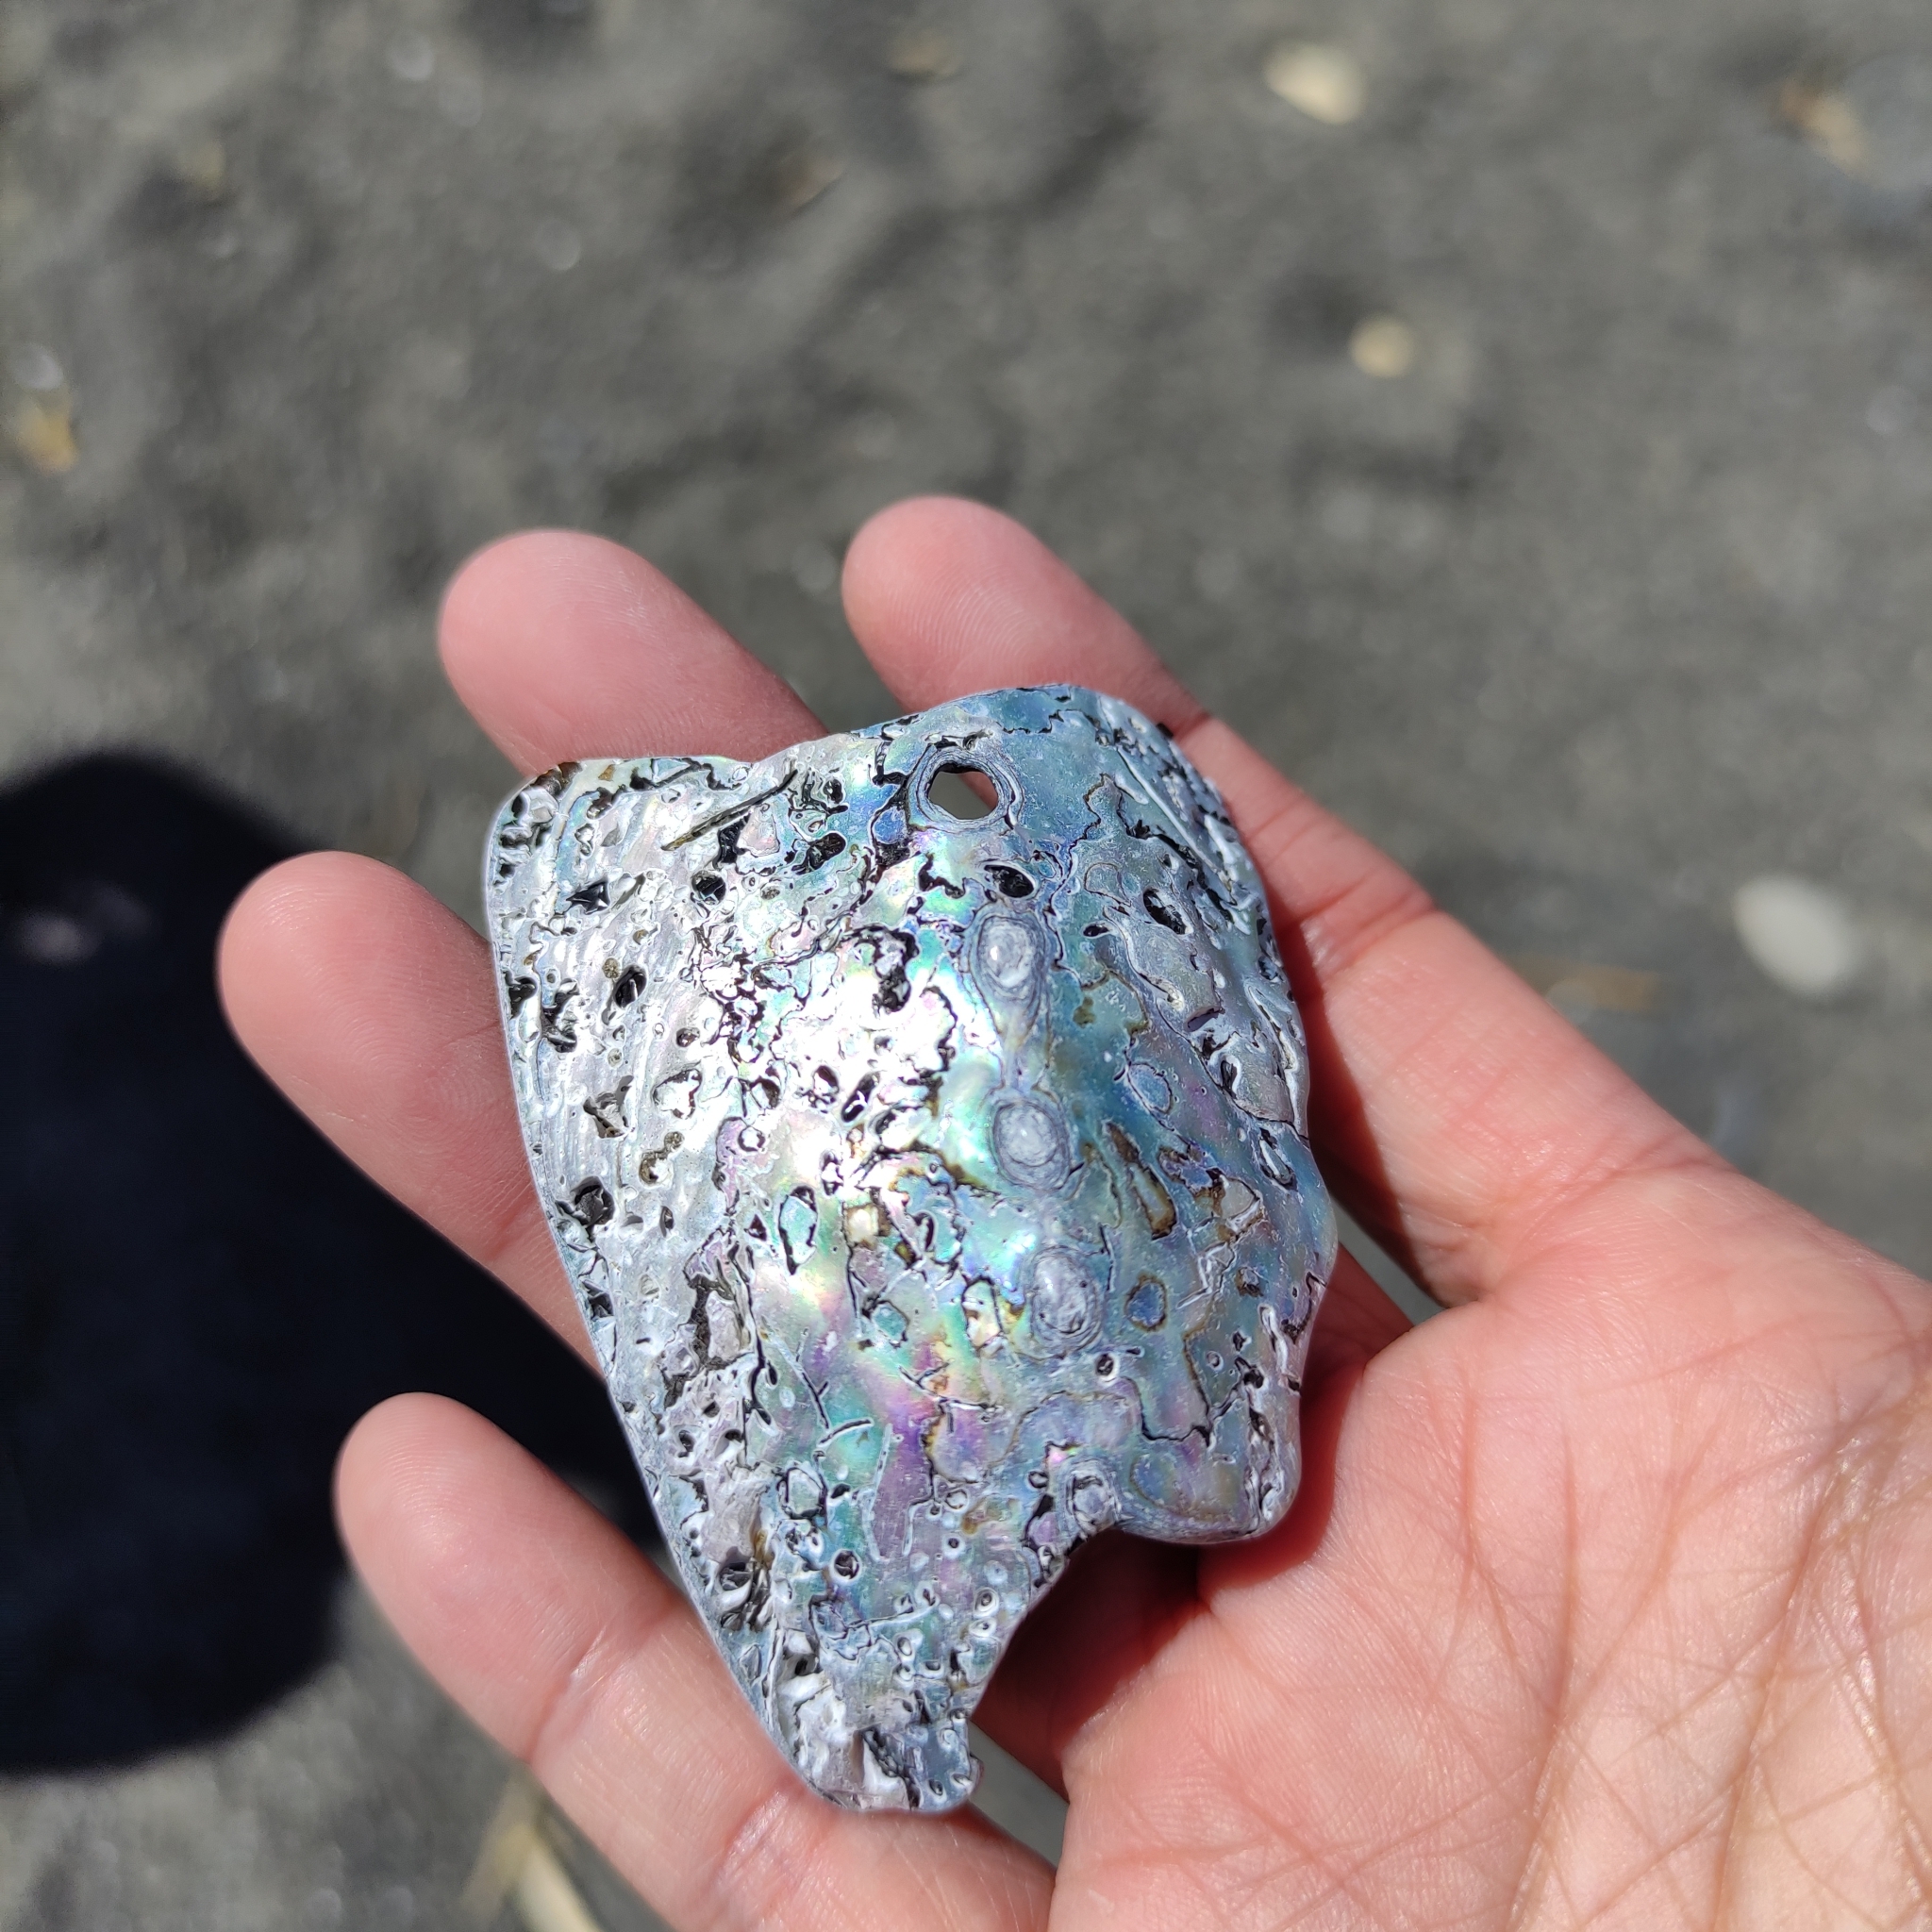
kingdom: Animalia
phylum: Mollusca
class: Gastropoda
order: Lepetellida
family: Haliotidae
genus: Haliotis
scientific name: Haliotis iris
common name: Abalone
